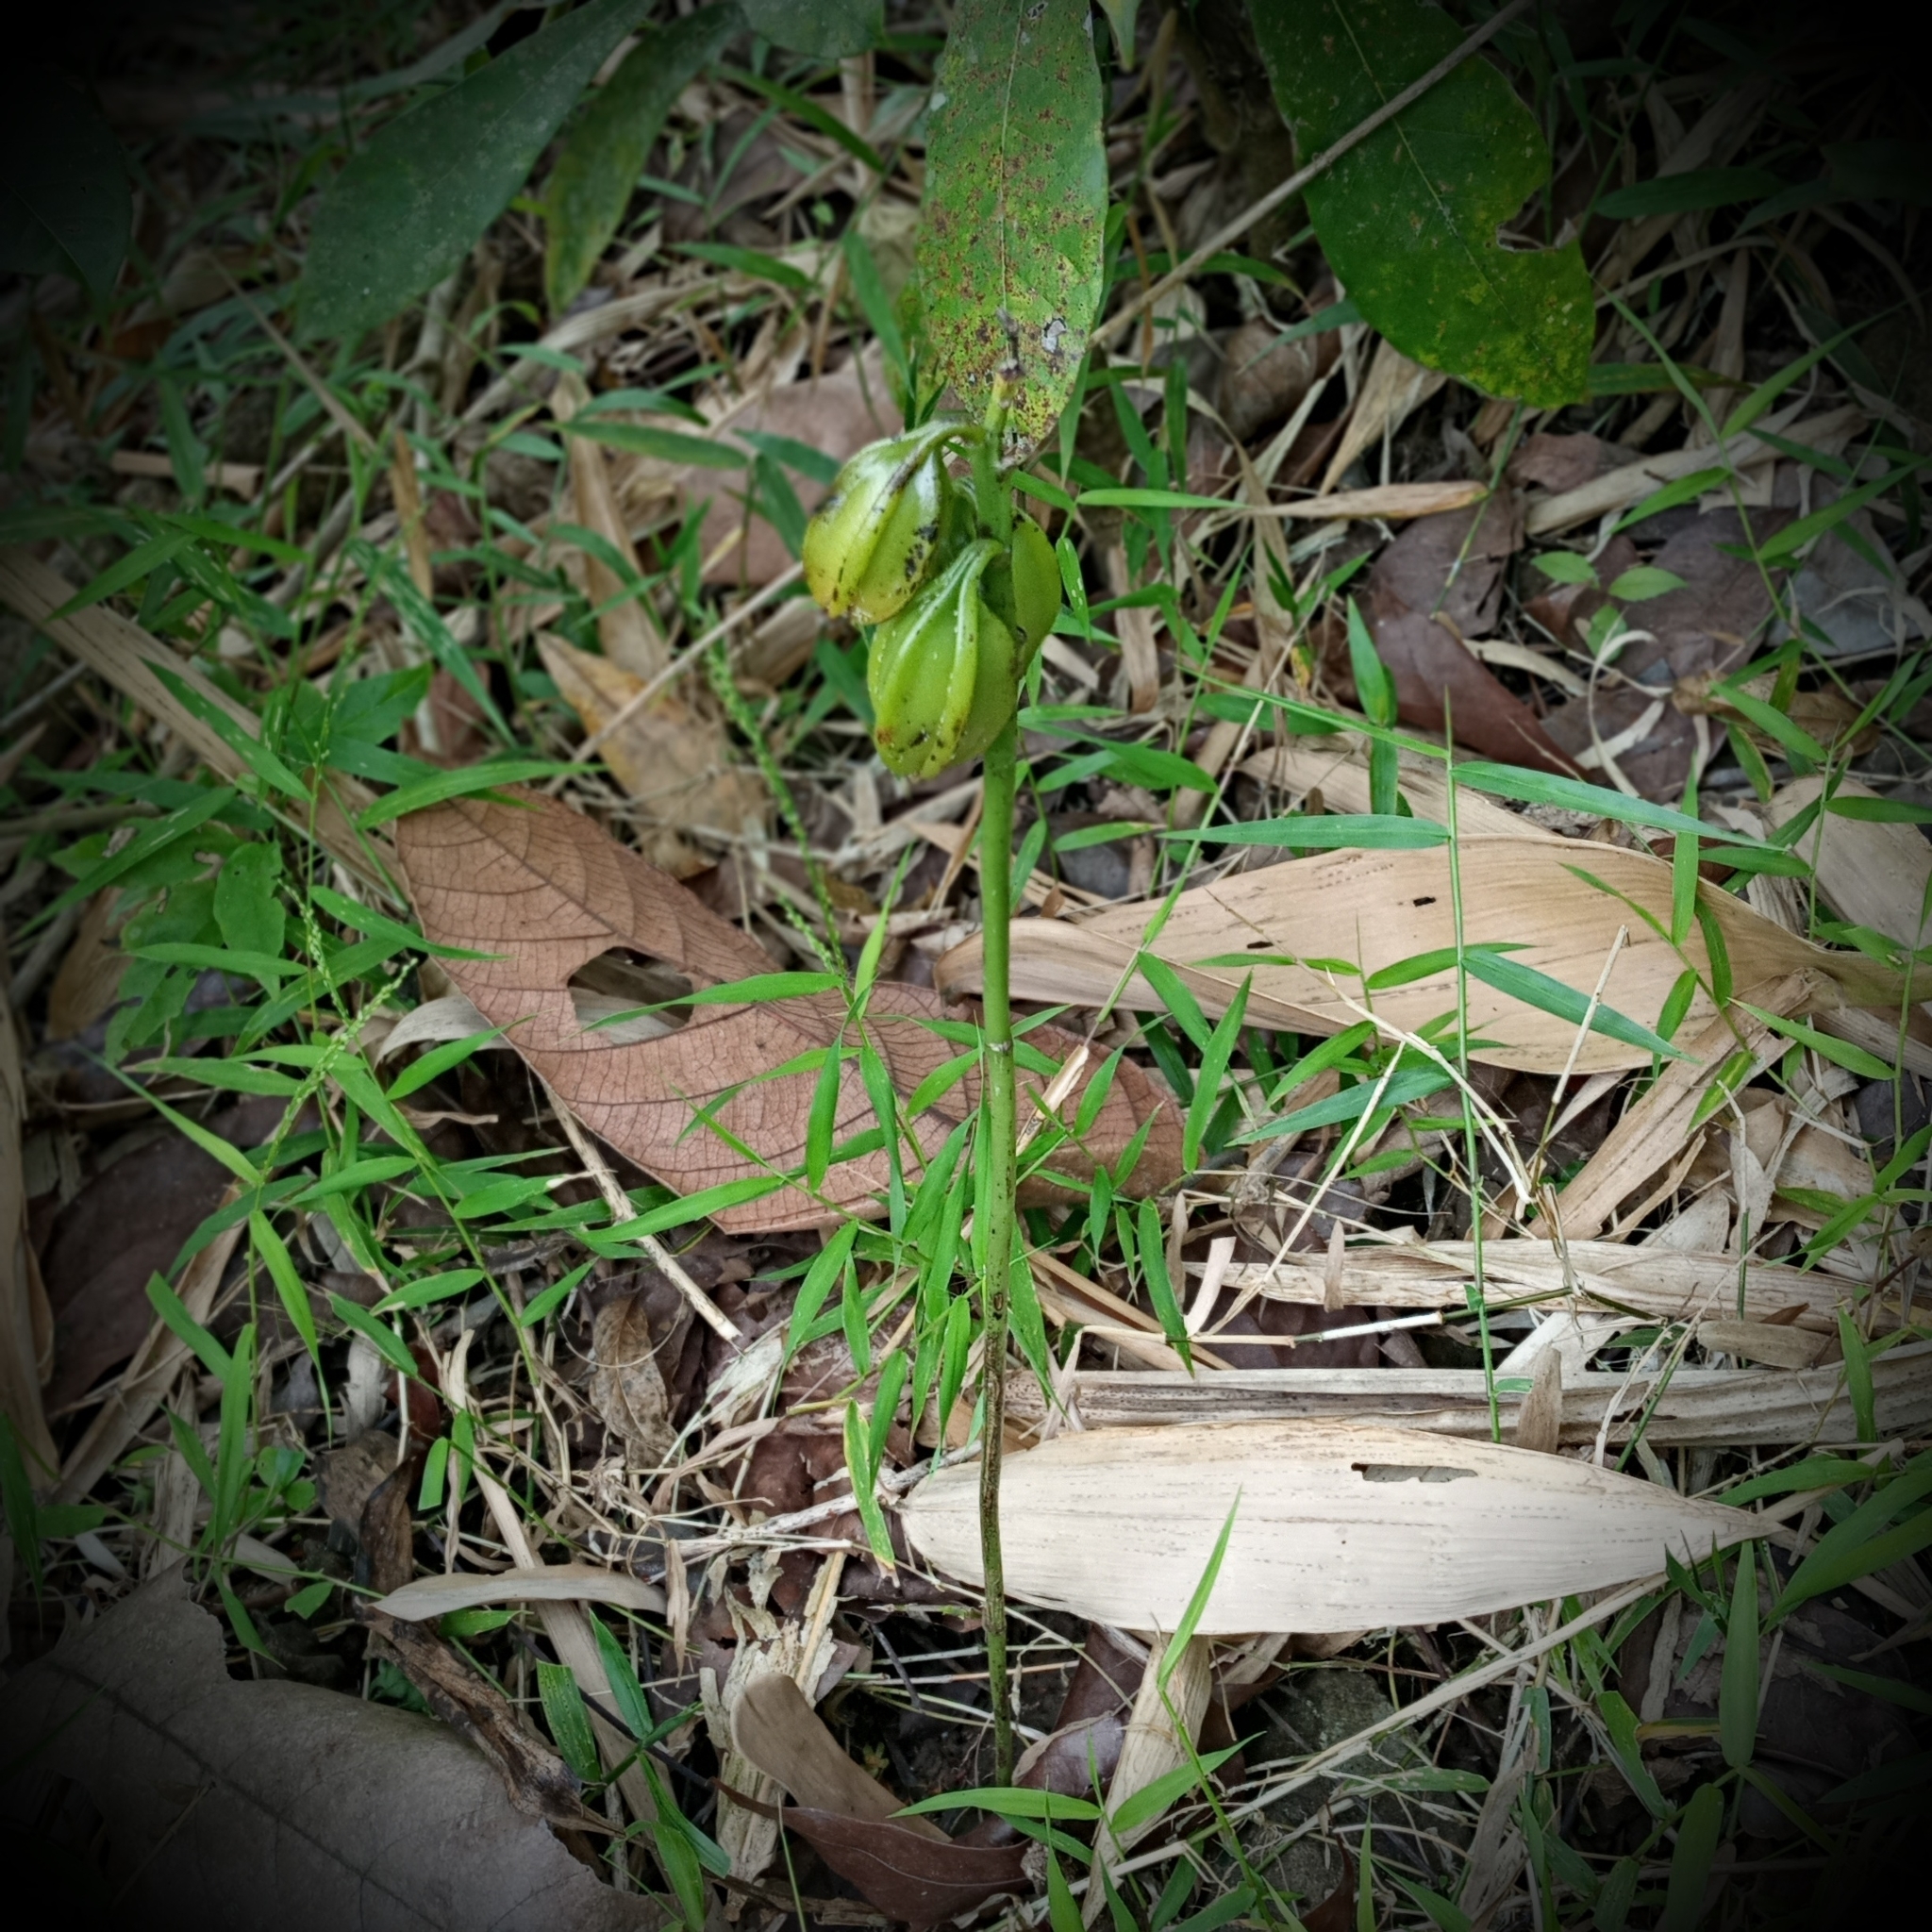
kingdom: Plantae
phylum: Tracheophyta
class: Liliopsida
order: Asparagales
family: Orchidaceae
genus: Eulophia
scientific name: Eulophia cernua
